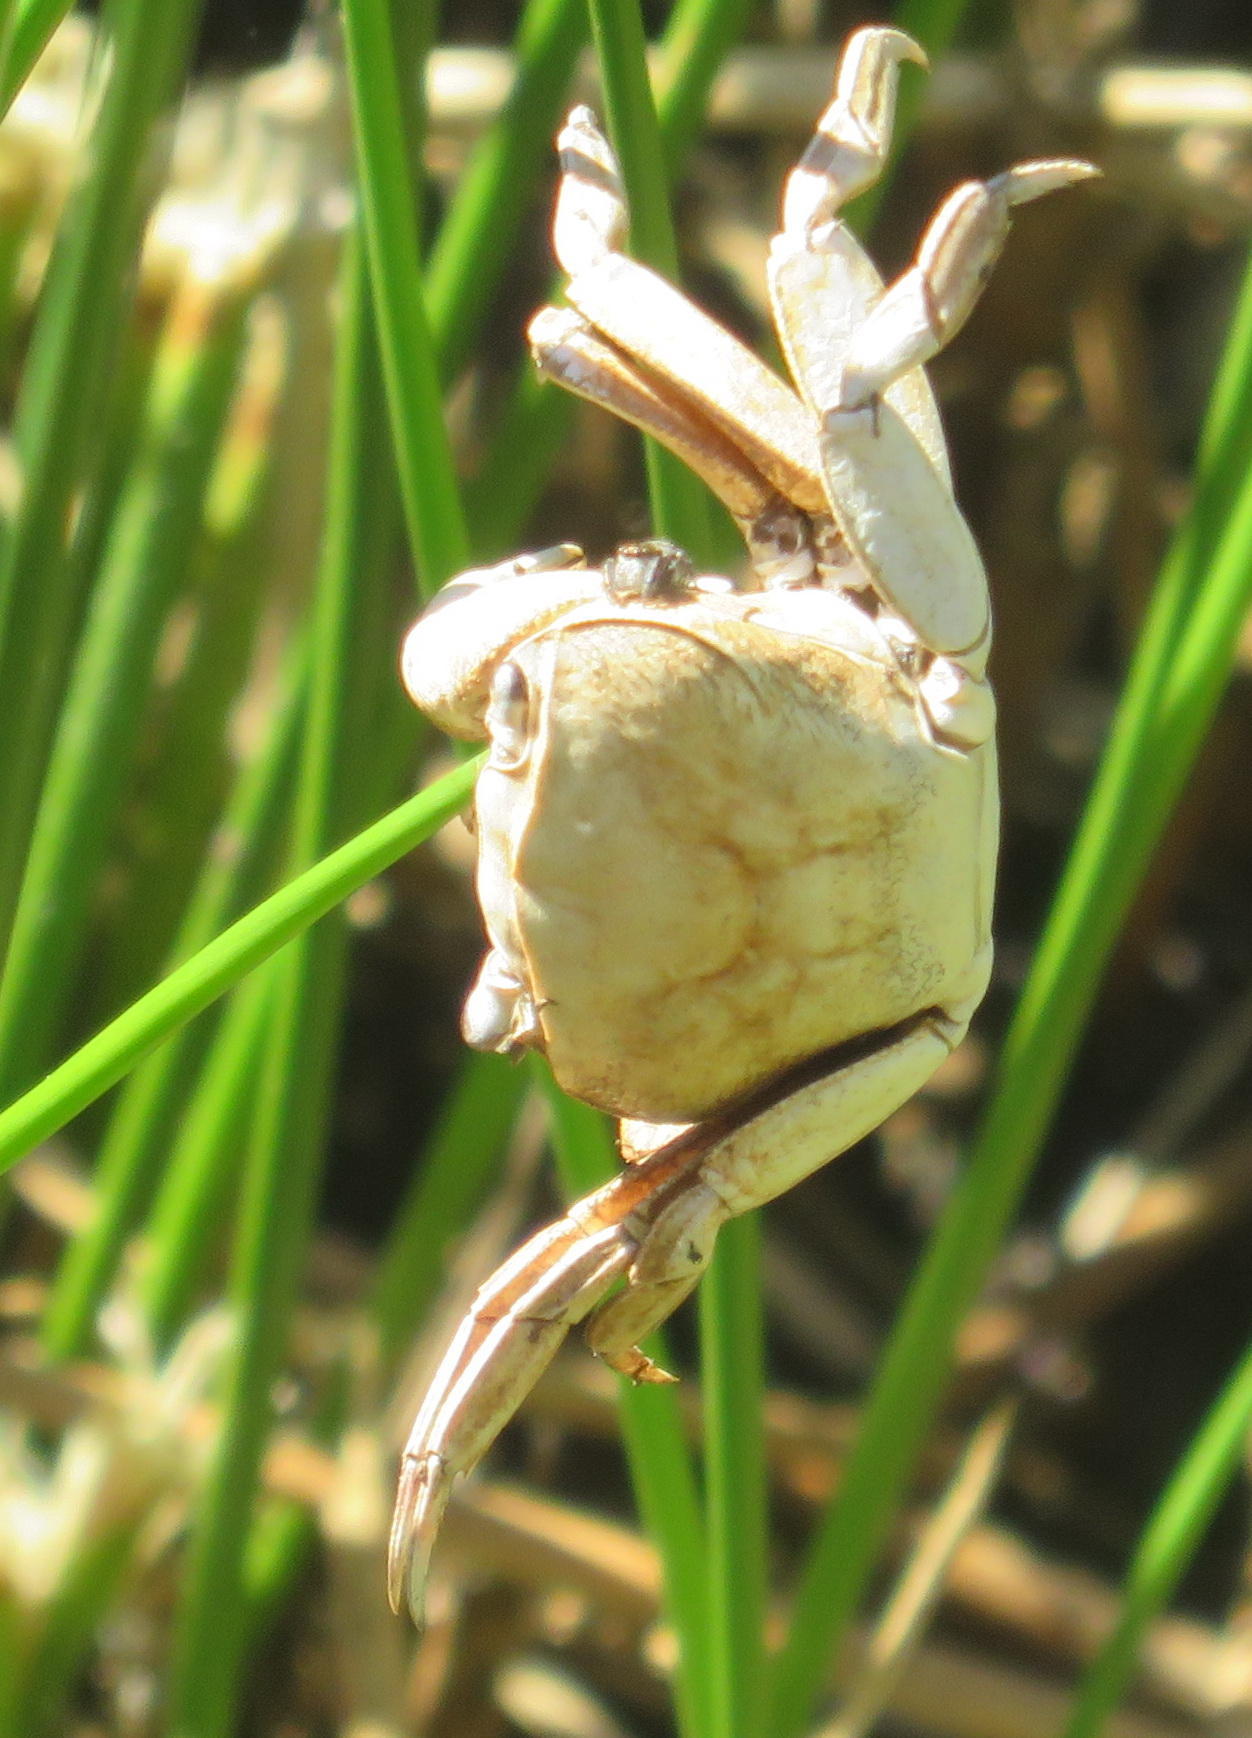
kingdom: Animalia
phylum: Arthropoda
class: Malacostraca
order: Decapoda
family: Potamonautidae
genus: Potamonautes
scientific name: Potamonautes barbarai
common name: Barbara's crab
